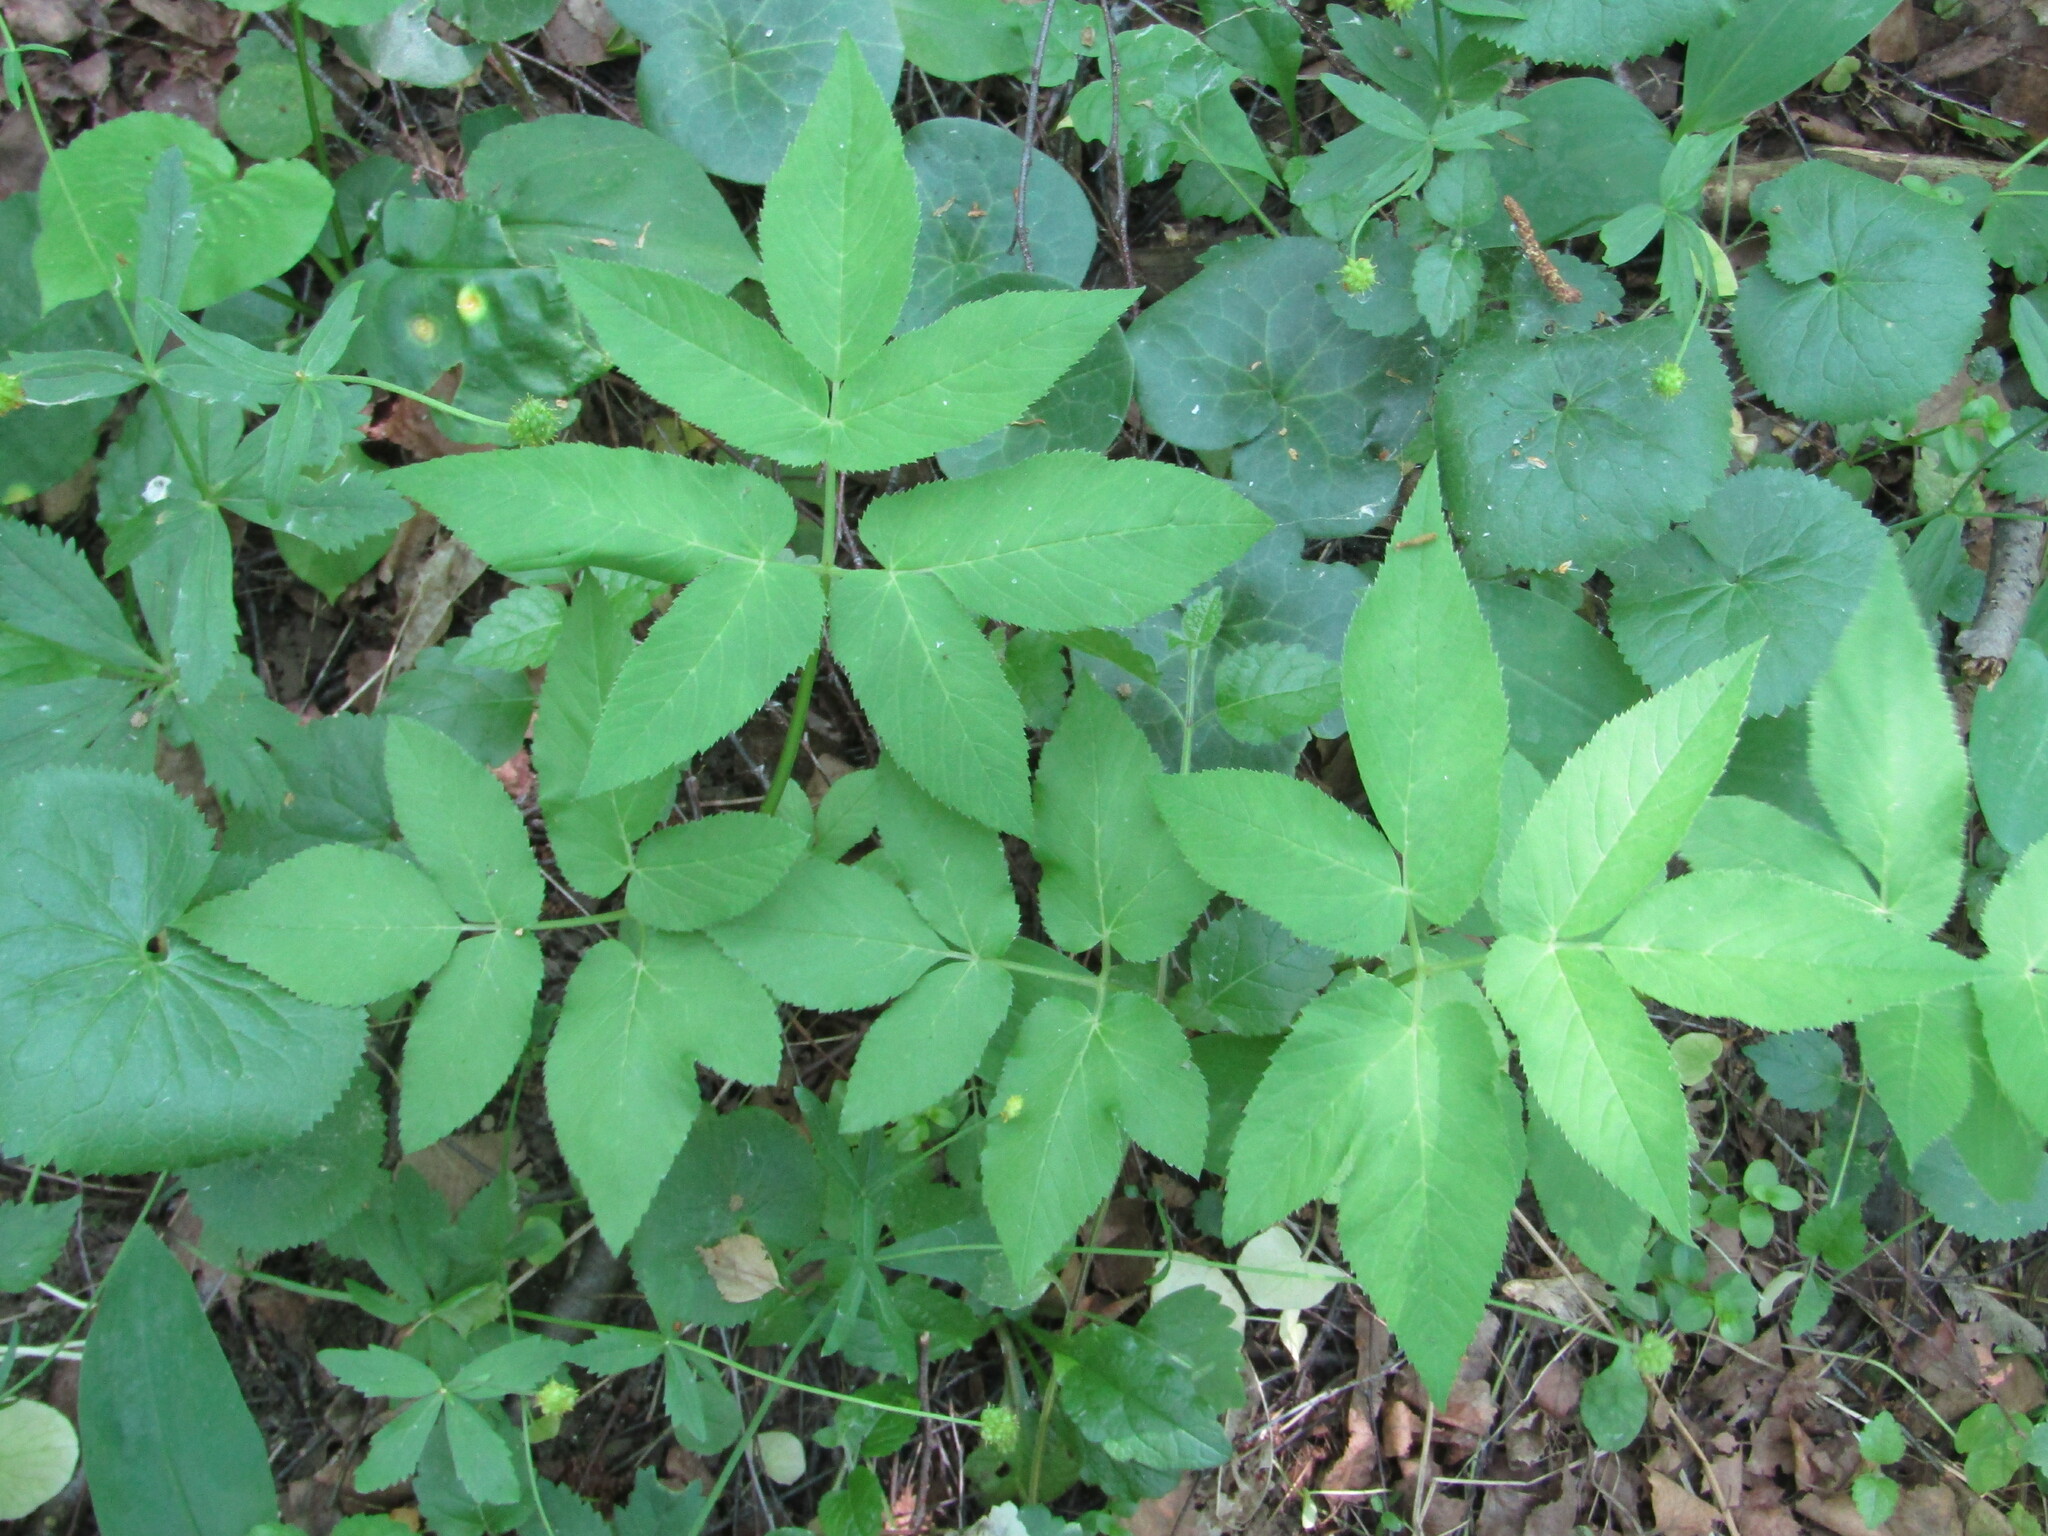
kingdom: Plantae
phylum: Tracheophyta
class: Magnoliopsida
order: Apiales
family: Apiaceae
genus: Aegopodium
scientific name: Aegopodium podagraria
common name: Ground-elder
